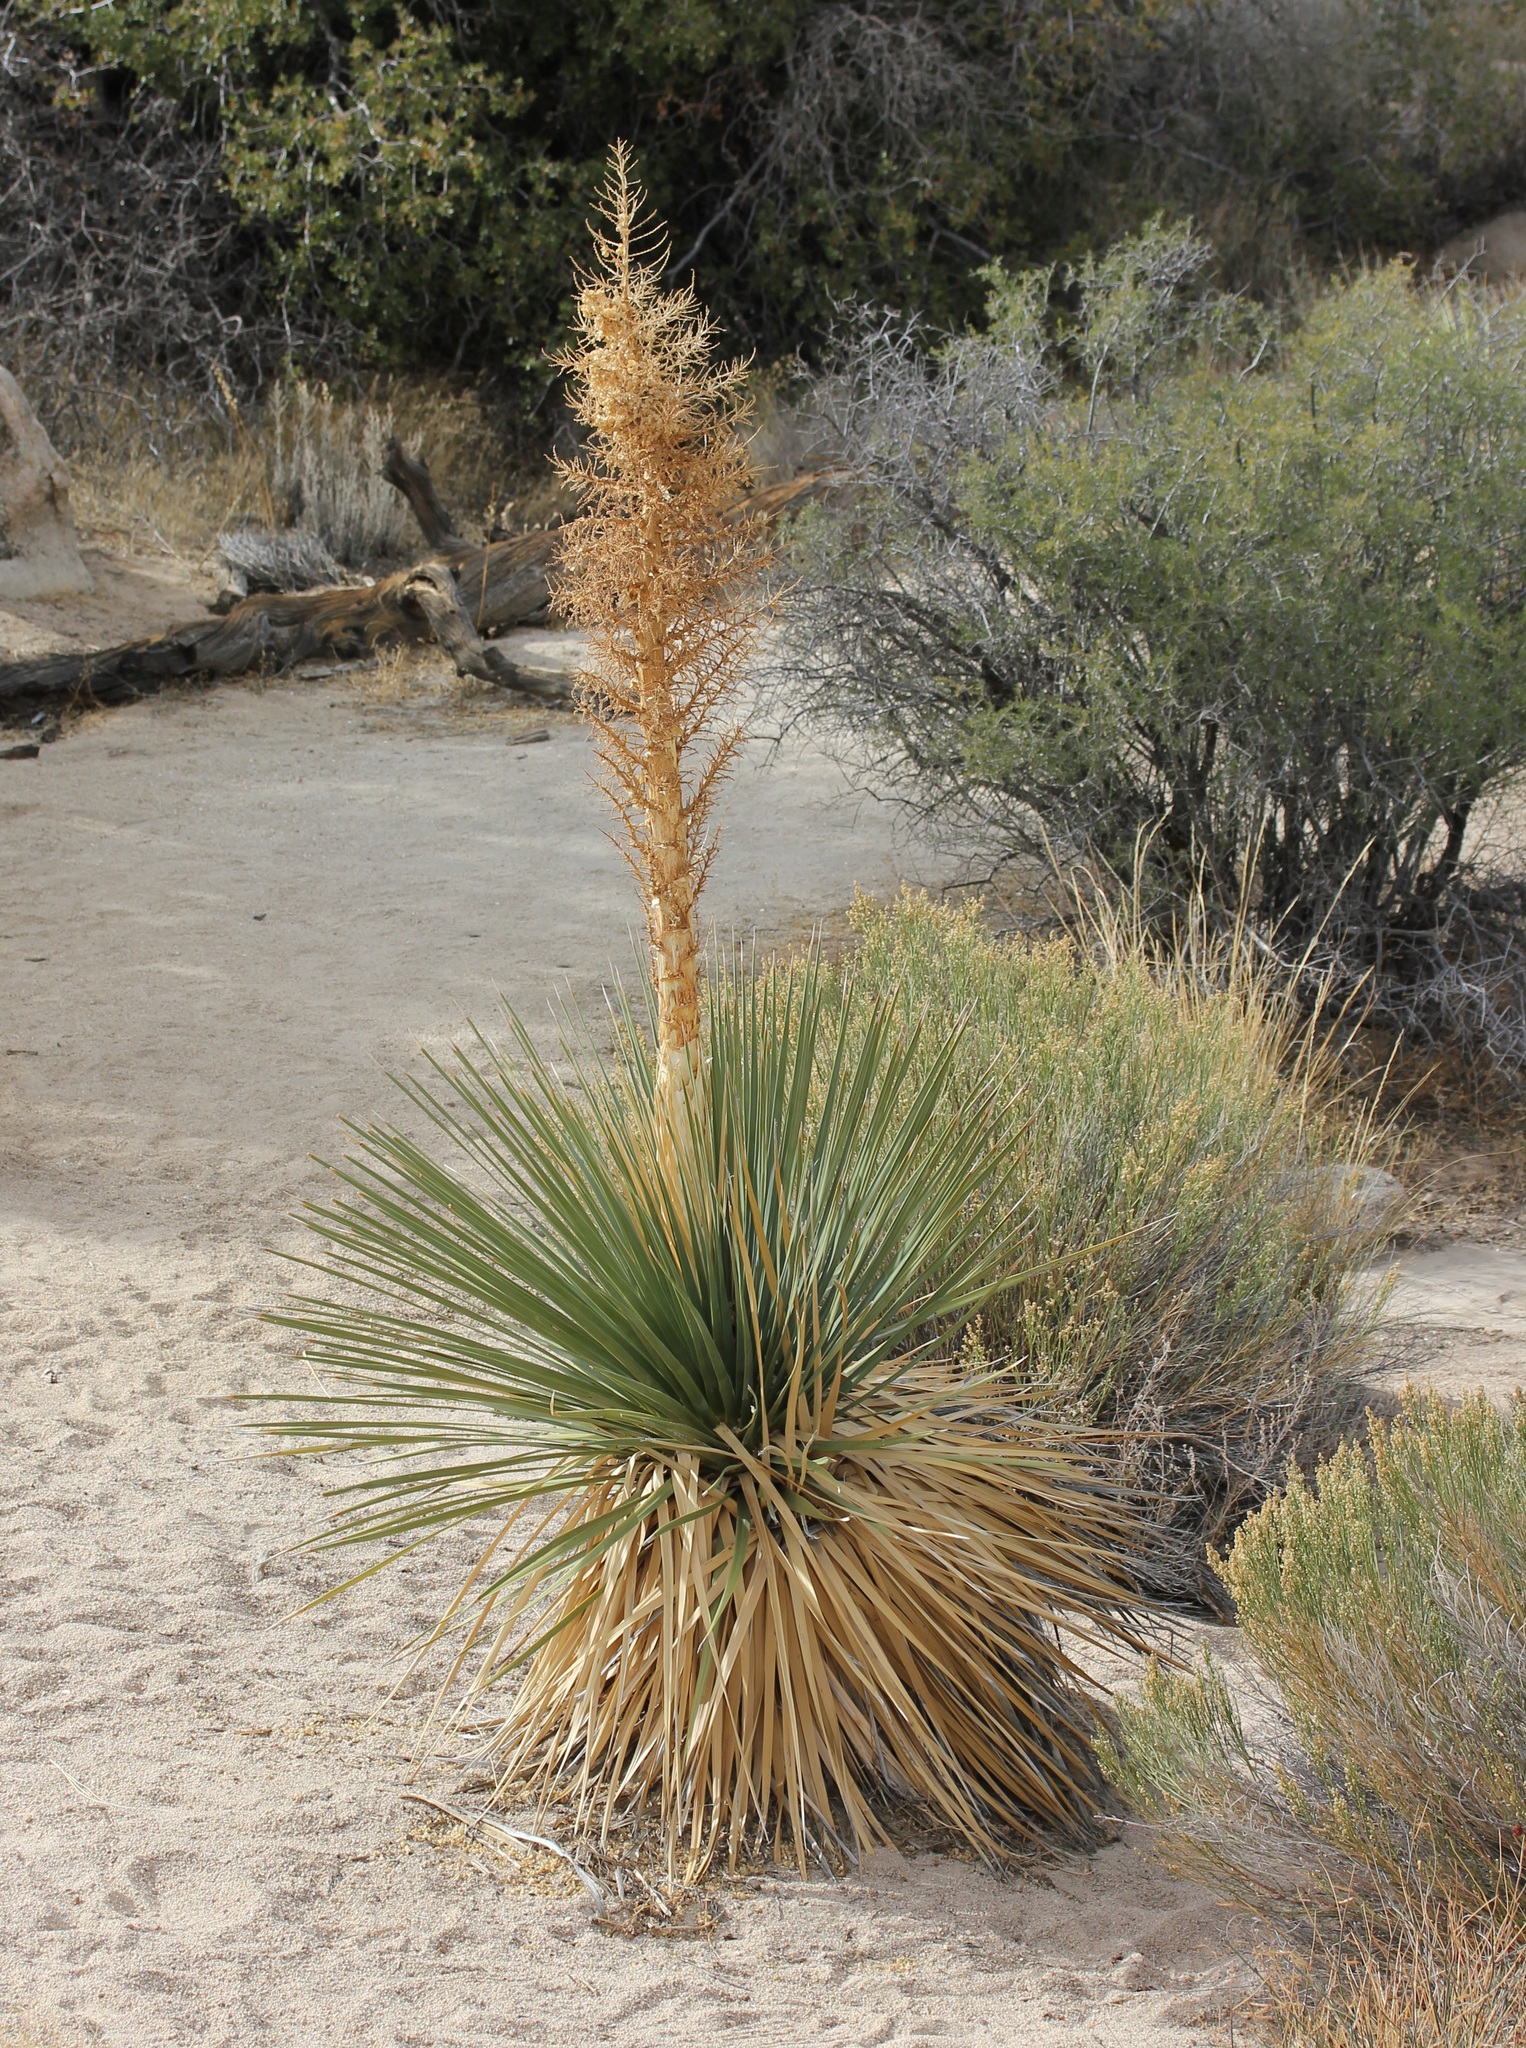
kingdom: Plantae
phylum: Tracheophyta
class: Liliopsida
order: Asparagales
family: Asparagaceae
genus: Nolina
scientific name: Nolina parryi
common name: Parry nolina
